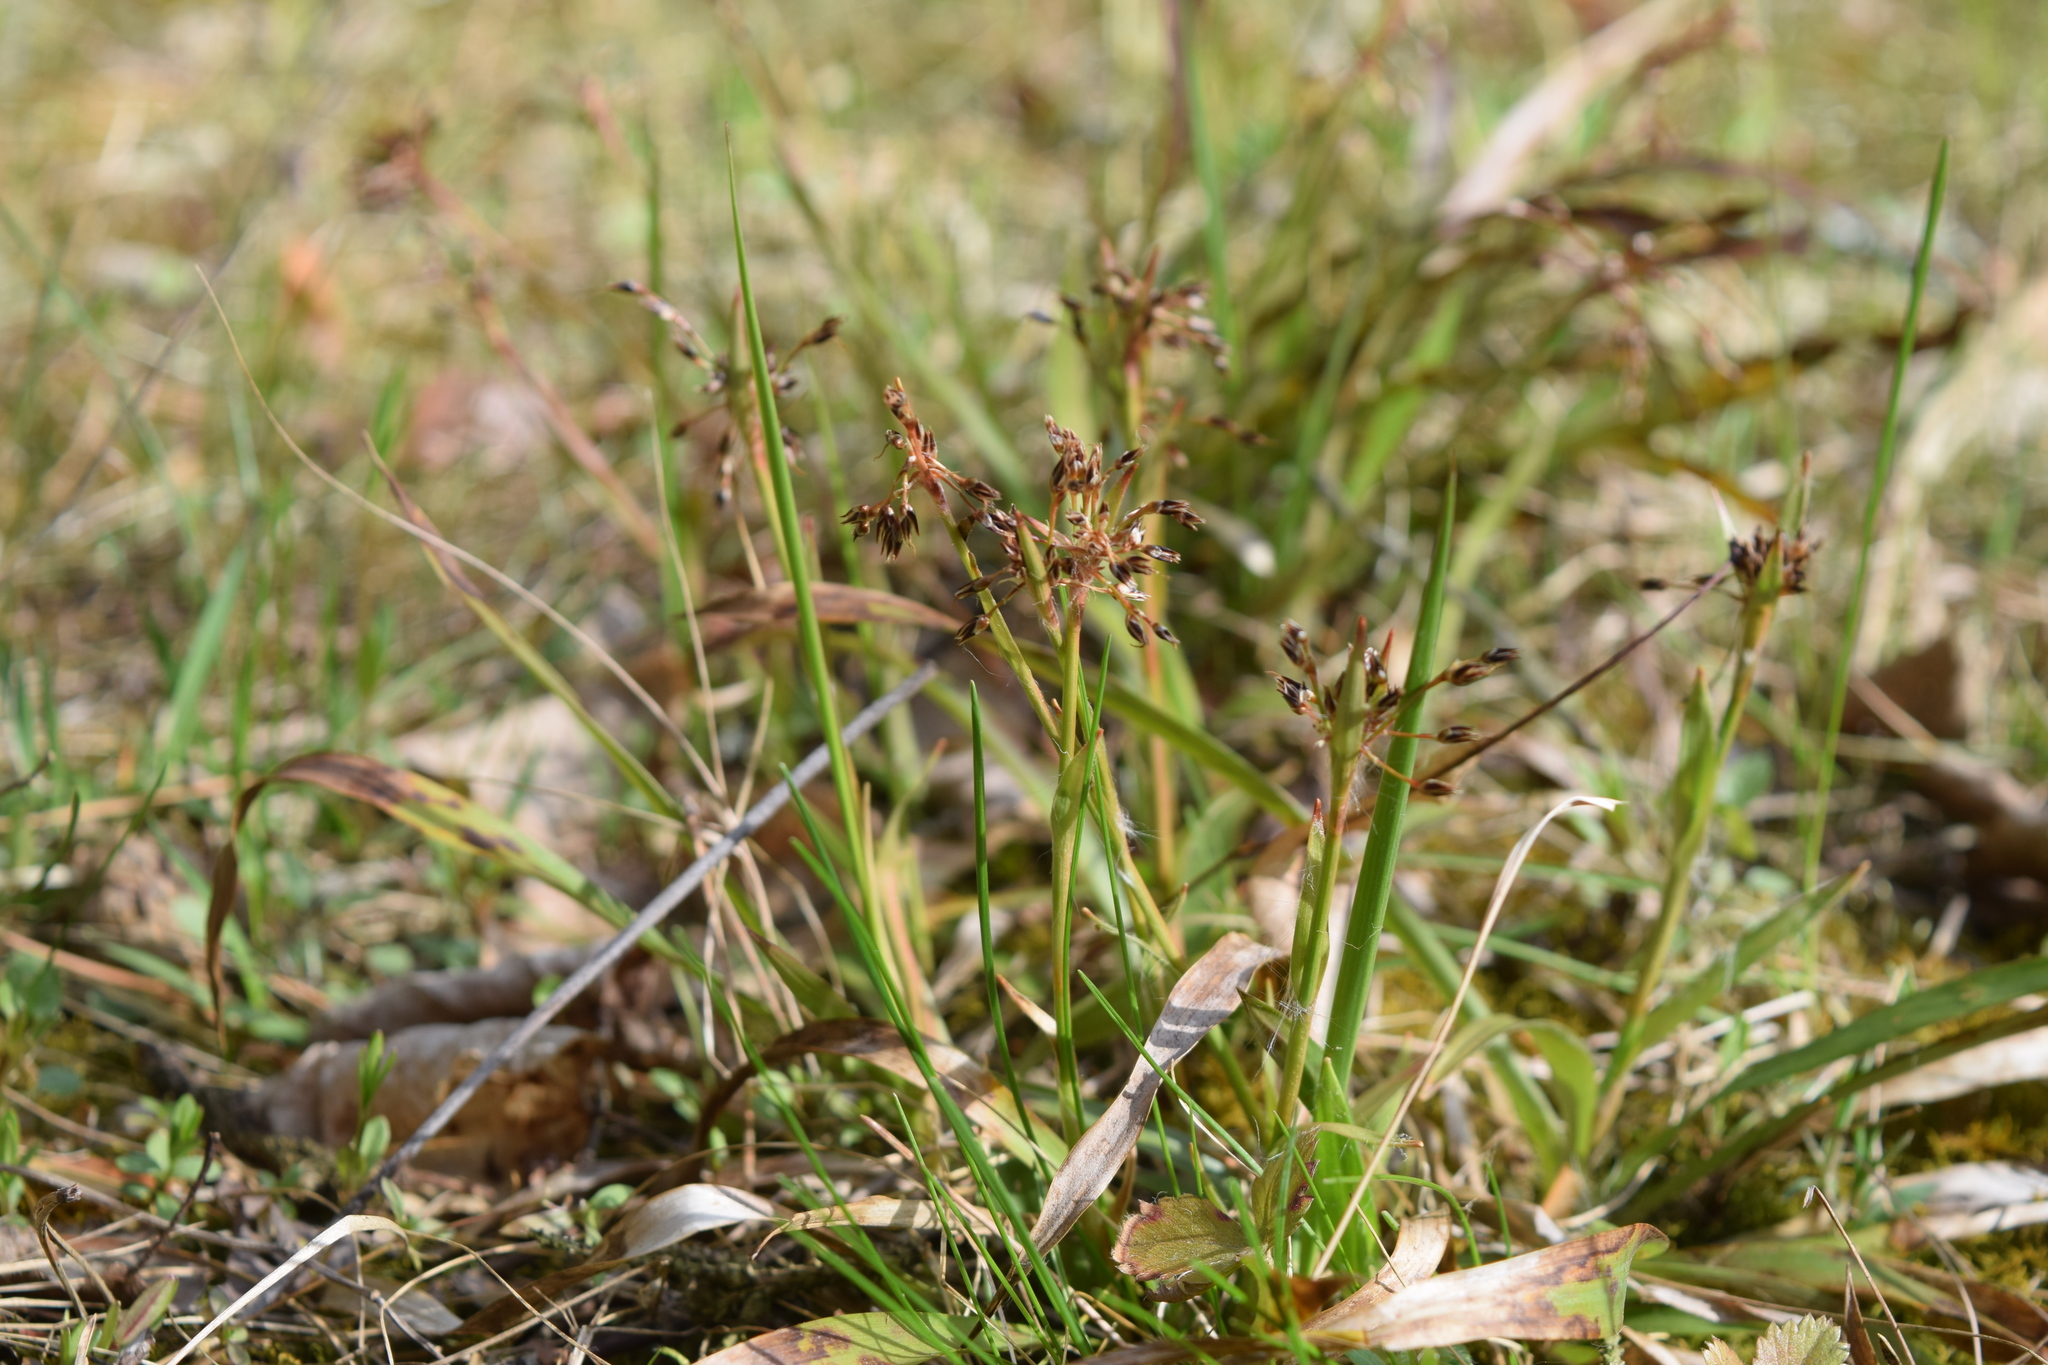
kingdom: Plantae
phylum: Tracheophyta
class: Liliopsida
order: Poales
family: Juncaceae
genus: Luzula
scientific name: Luzula pilosa
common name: Hairy wood-rush
